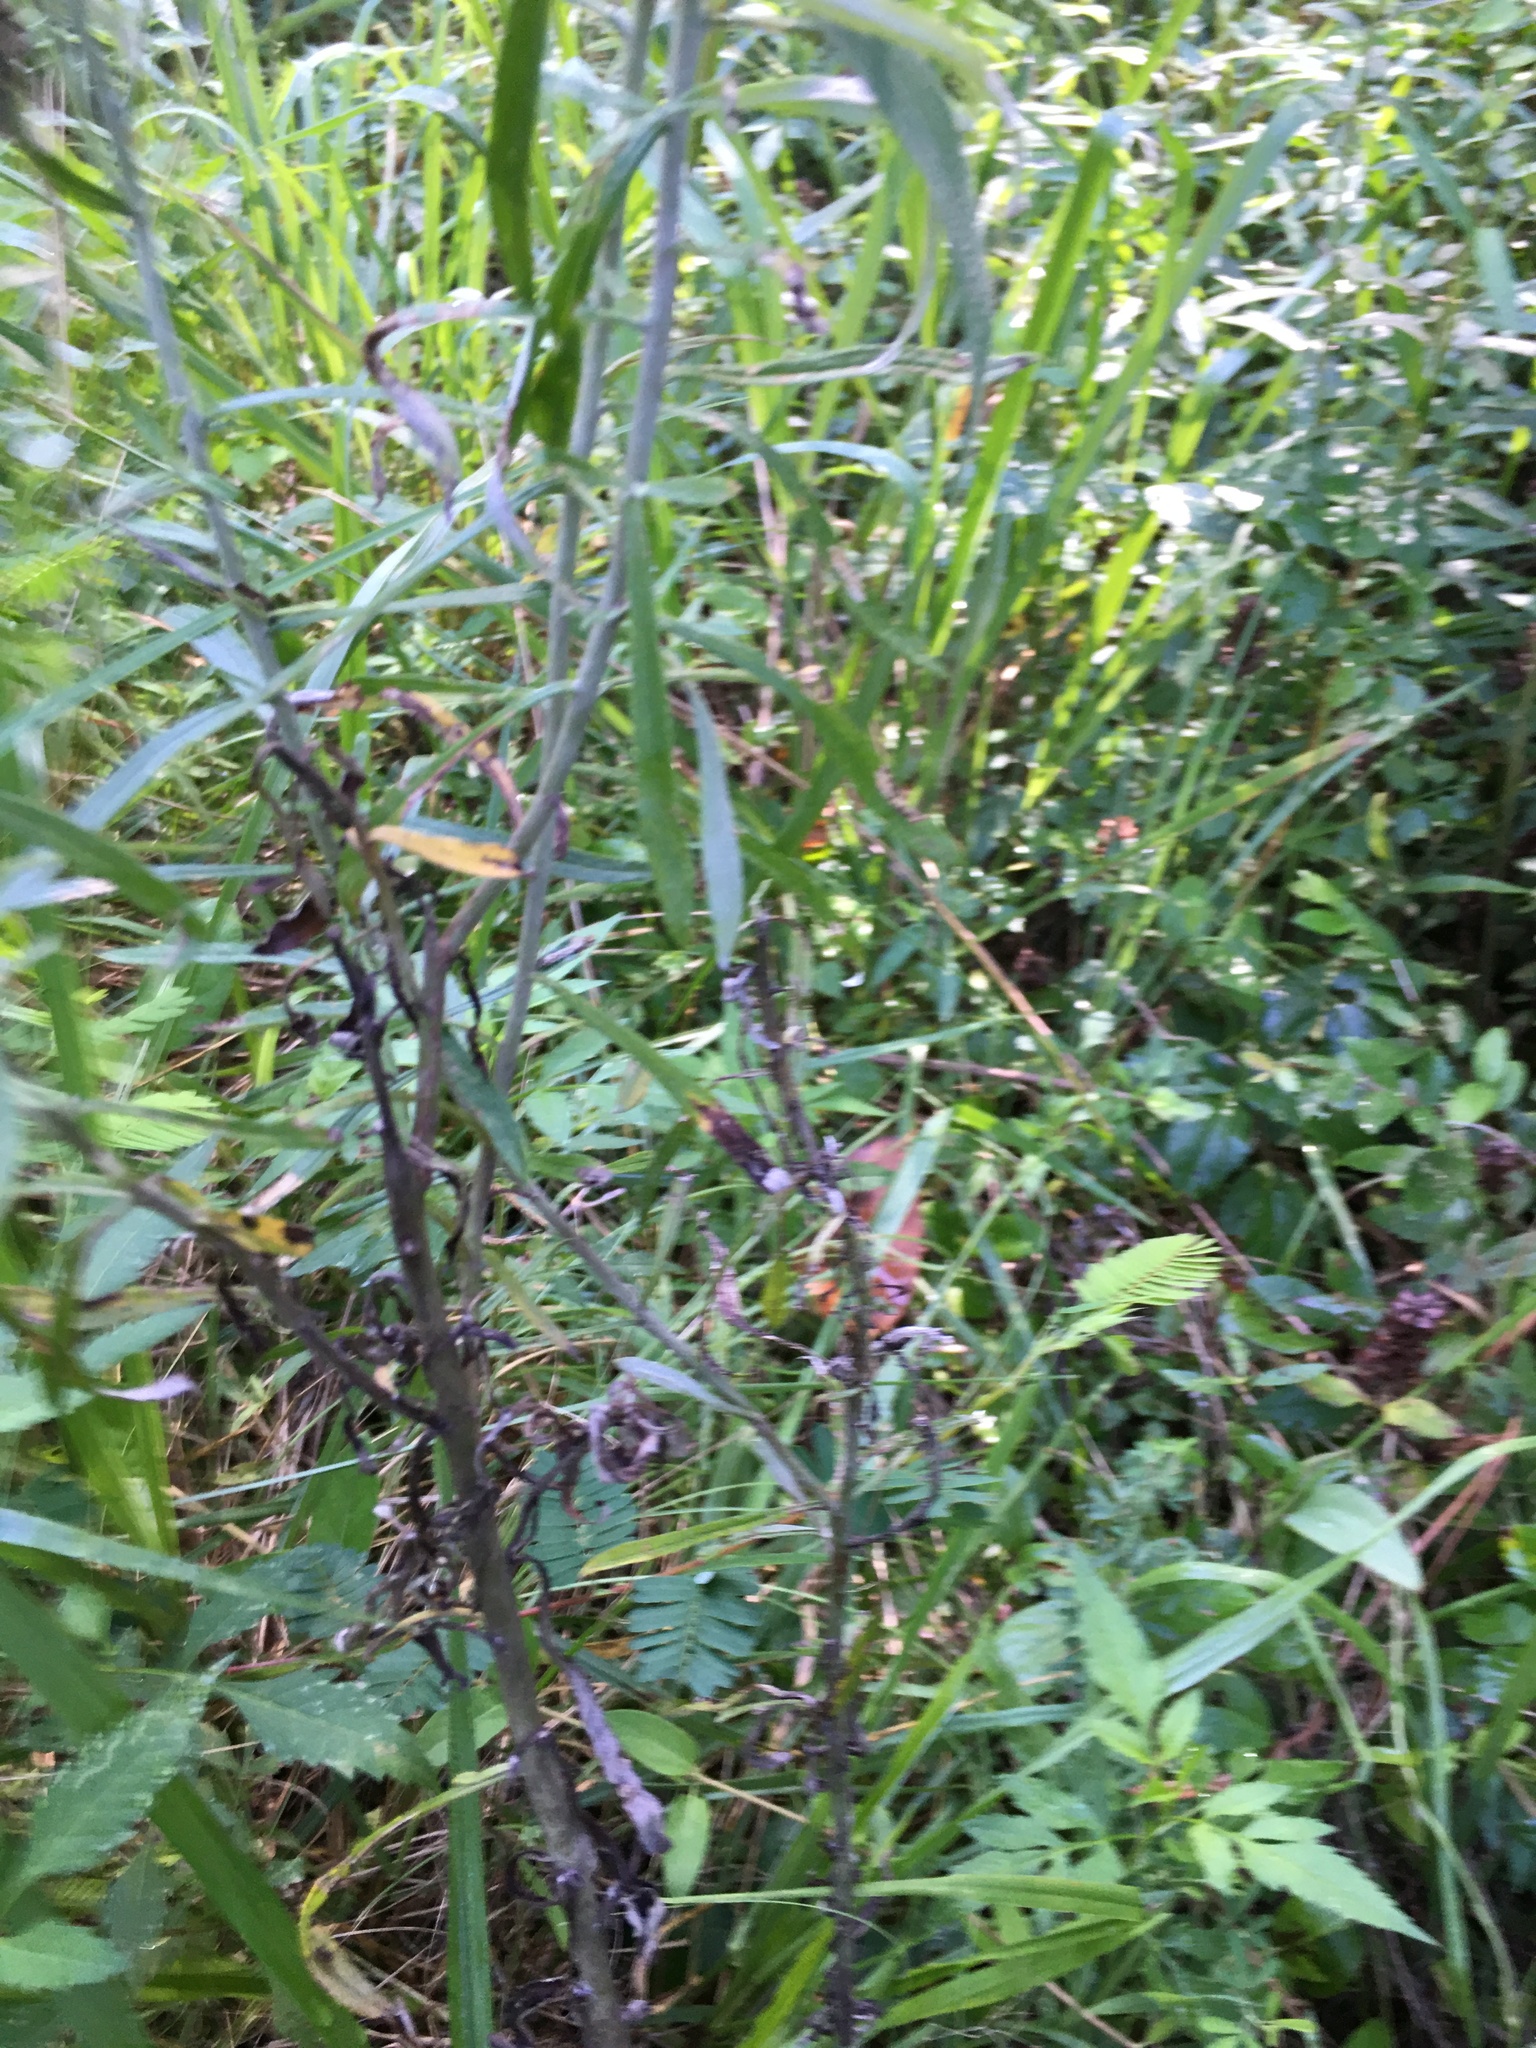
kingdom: Plantae
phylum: Tracheophyta
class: Magnoliopsida
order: Asterales
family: Asteraceae
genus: Pseudognaphalium
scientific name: Pseudognaphalium obtusifolium
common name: Eastern rabbit-tobacco
